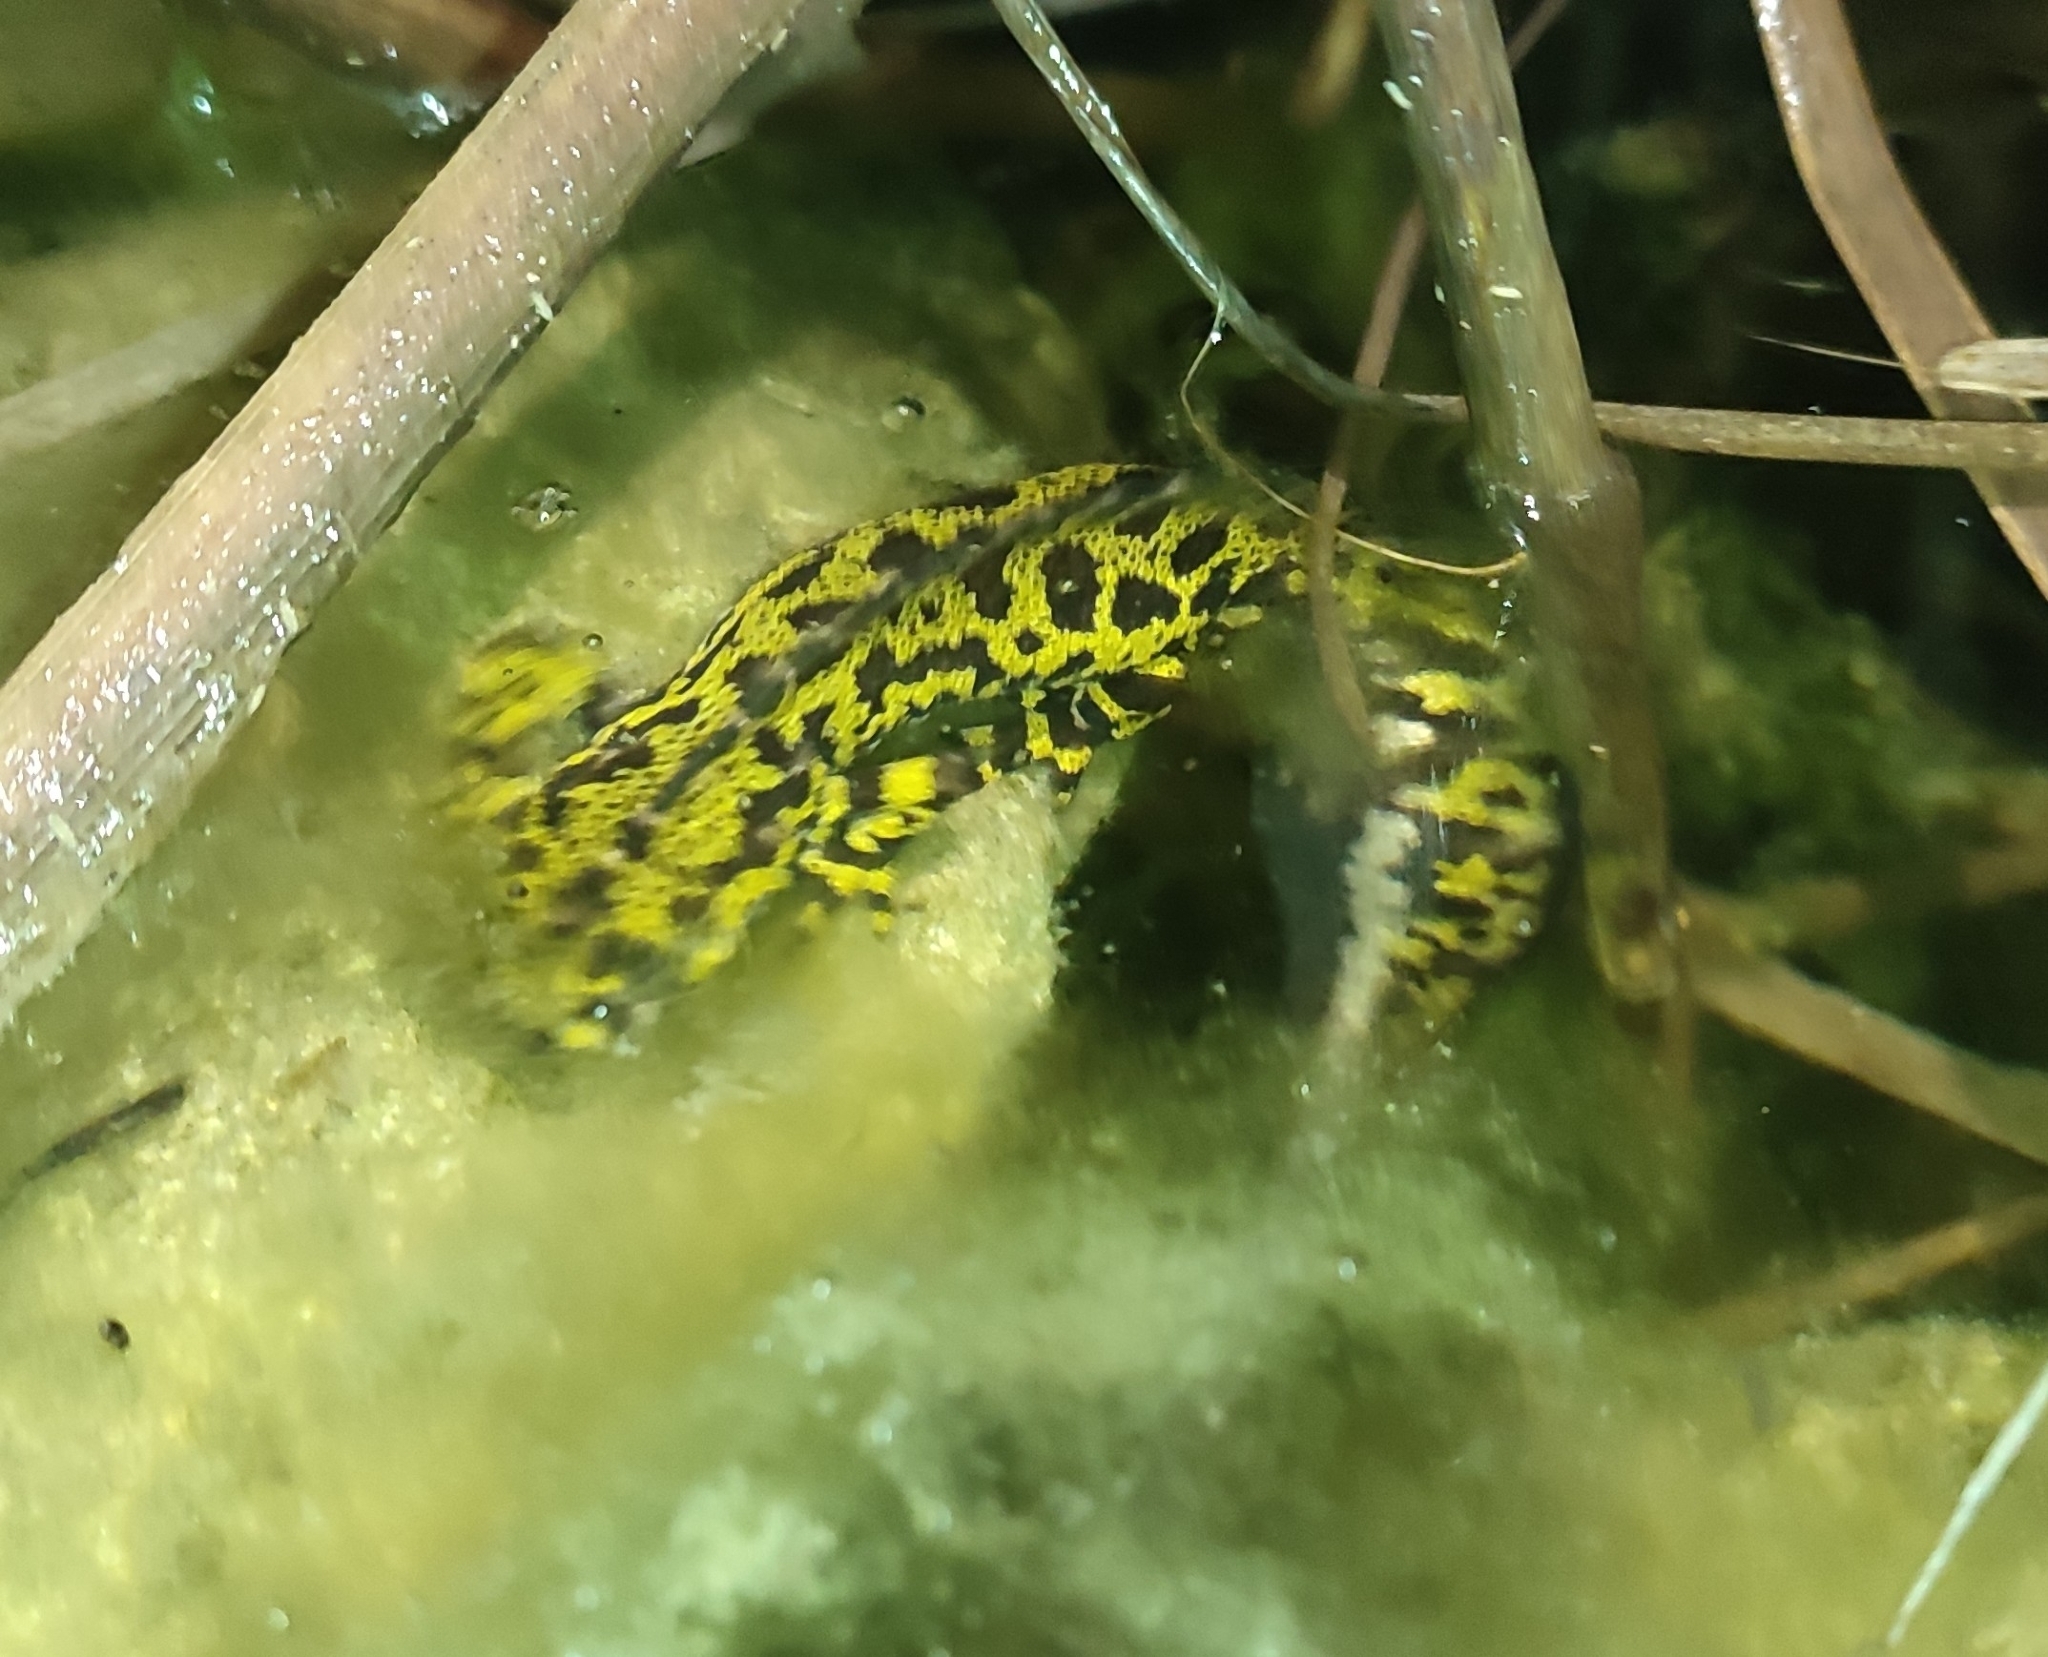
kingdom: Animalia
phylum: Chordata
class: Amphibia
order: Caudata
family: Salamandridae
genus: Triturus
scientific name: Triturus marmoratus
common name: Marbled newt
